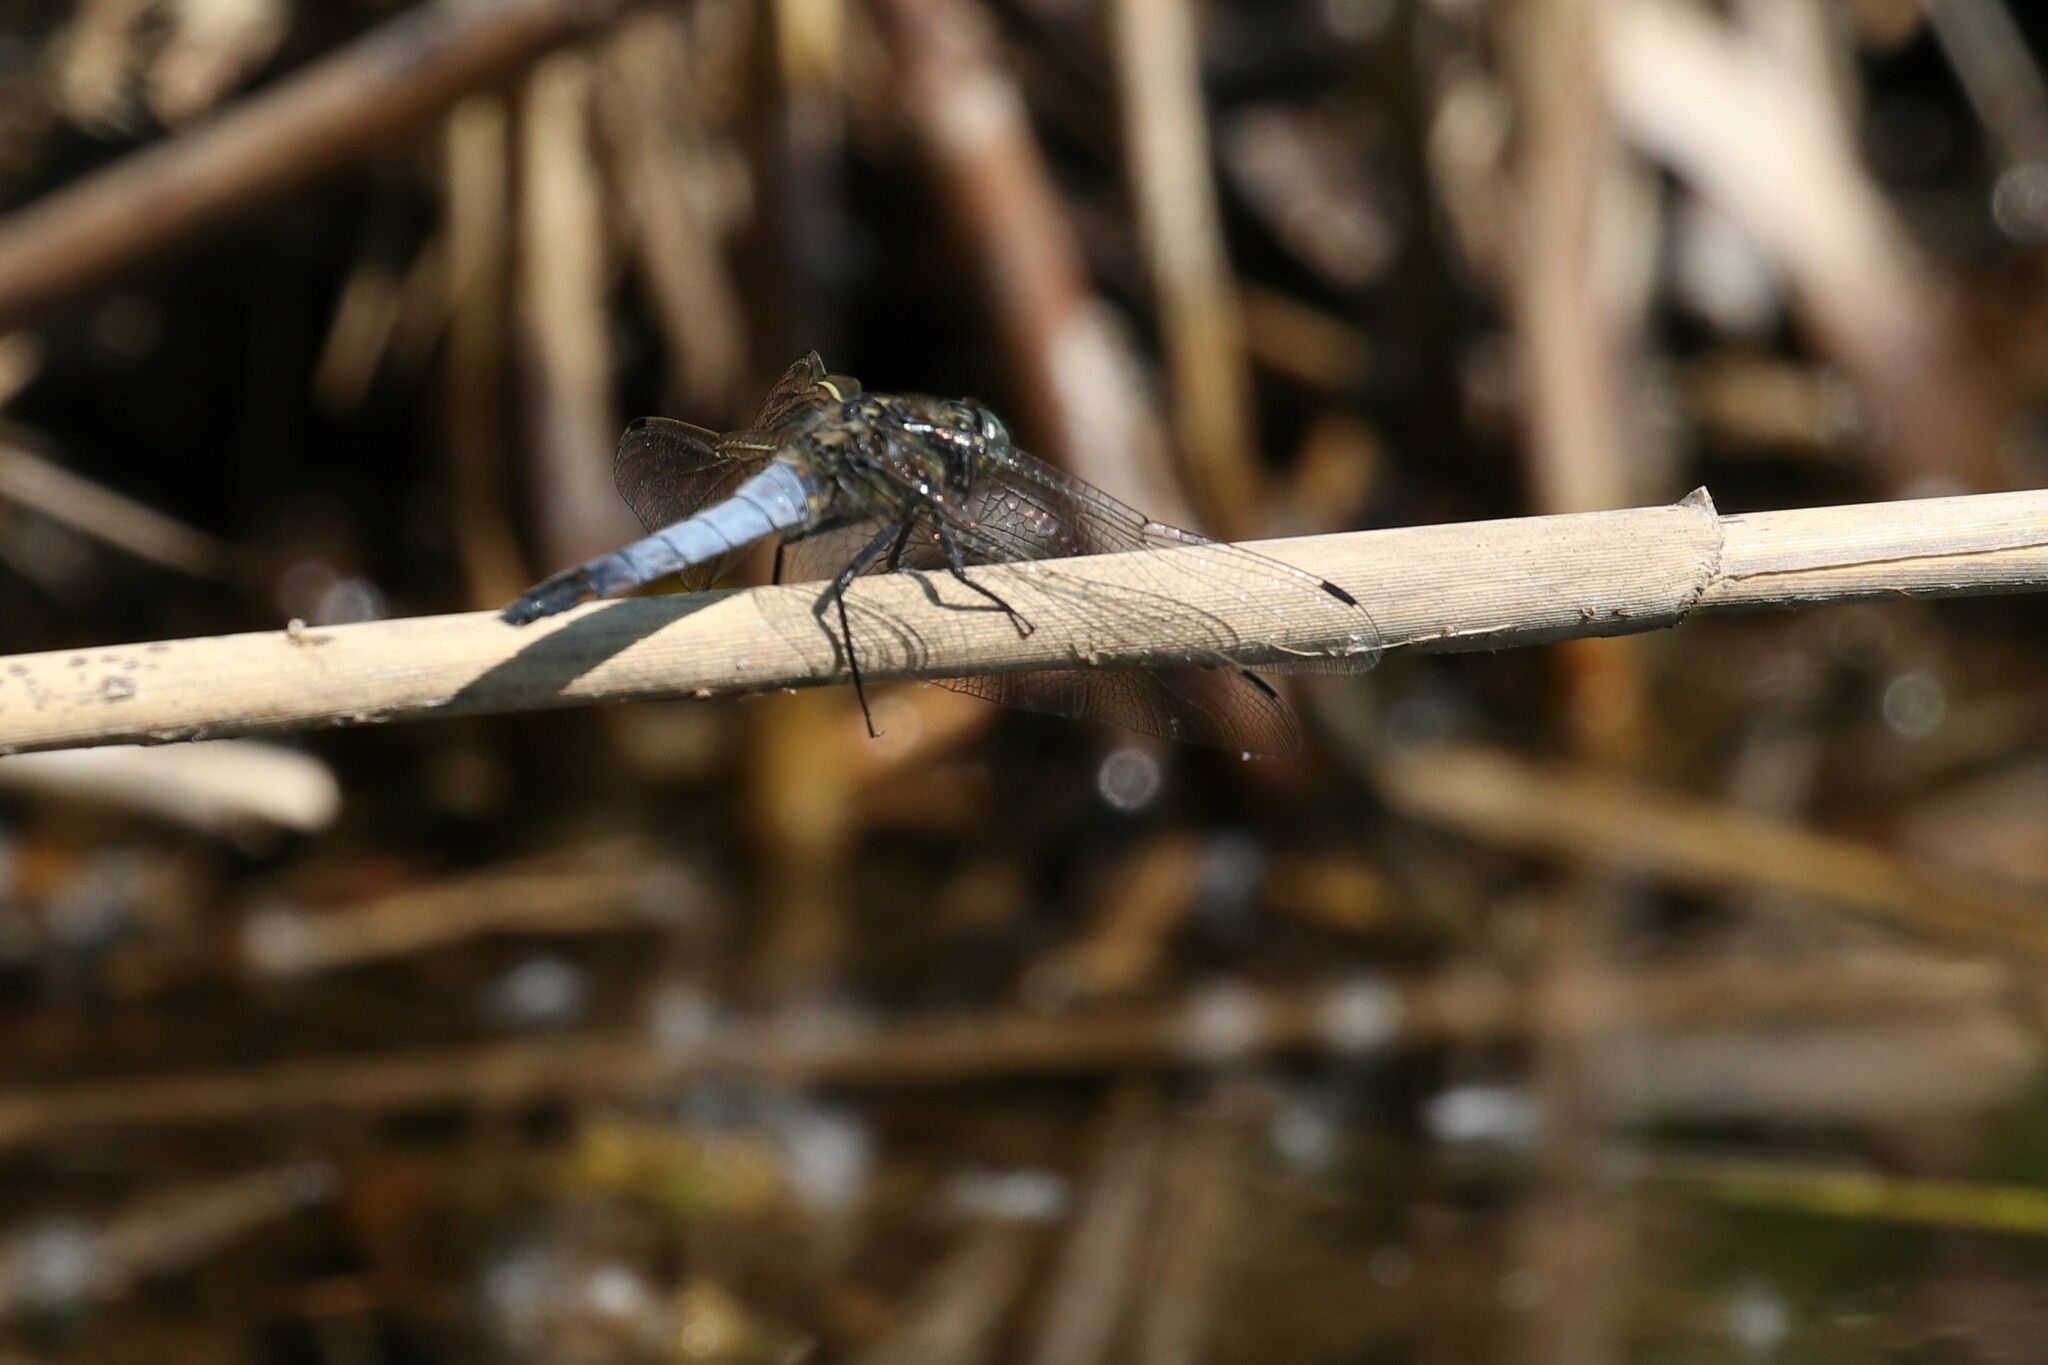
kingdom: Animalia
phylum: Arthropoda
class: Insecta
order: Odonata
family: Libellulidae
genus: Orthetrum
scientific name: Orthetrum cancellatum
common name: Black-tailed skimmer
